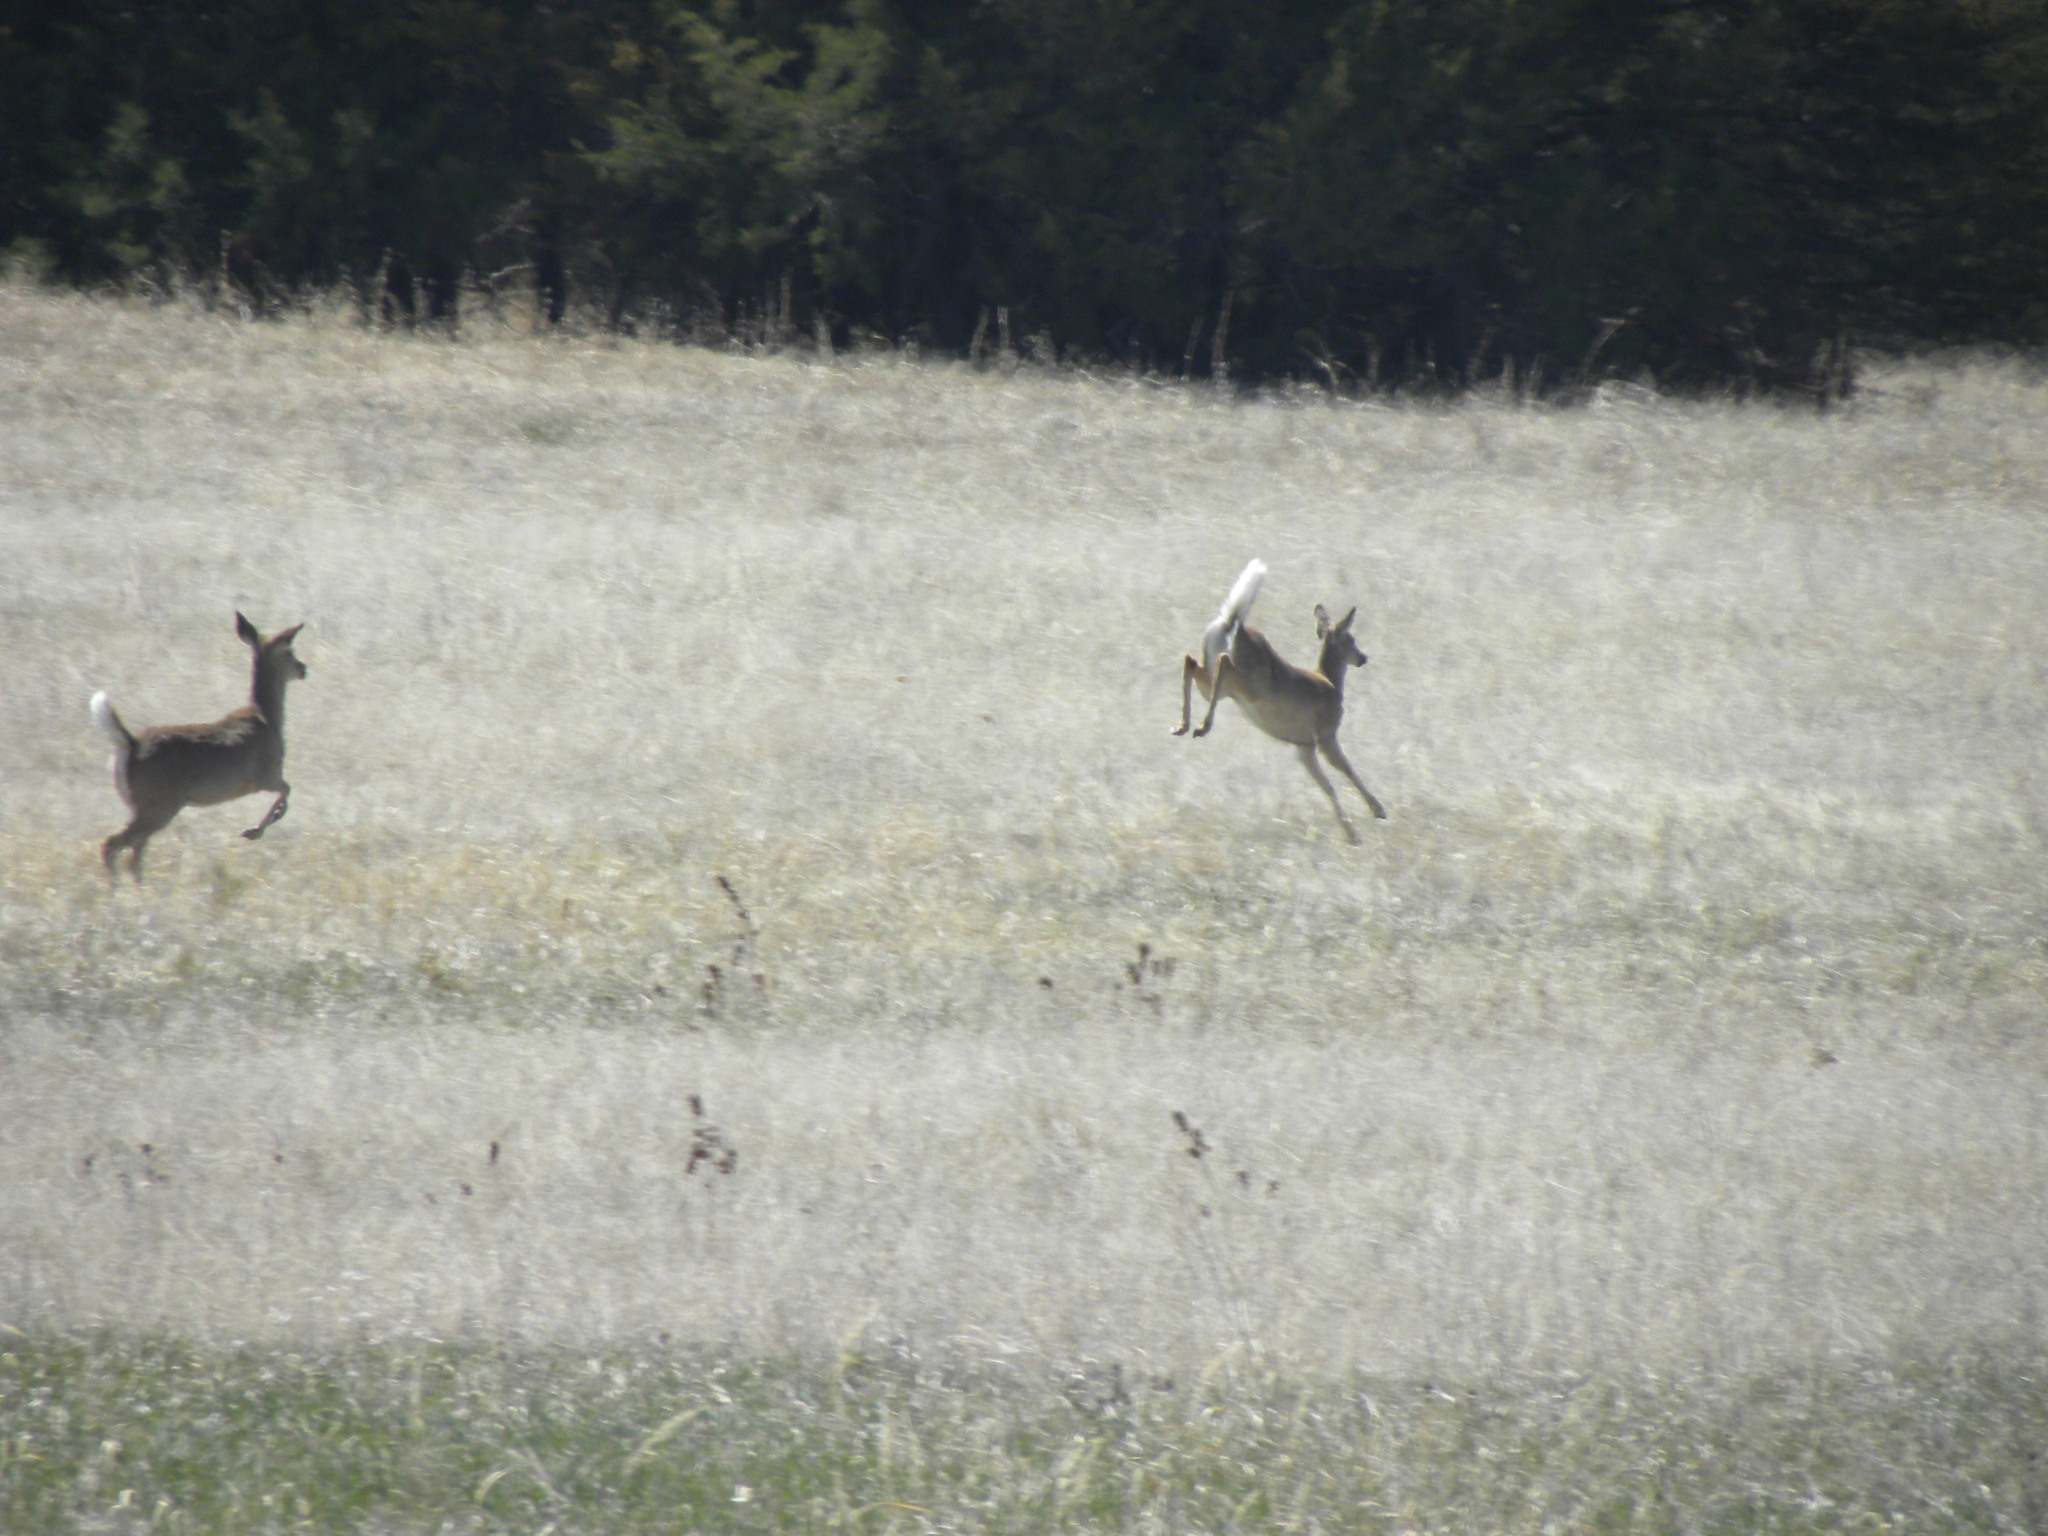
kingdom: Animalia
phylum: Chordata
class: Mammalia
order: Artiodactyla
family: Cervidae
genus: Odocoileus
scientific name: Odocoileus virginianus
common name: White-tailed deer
